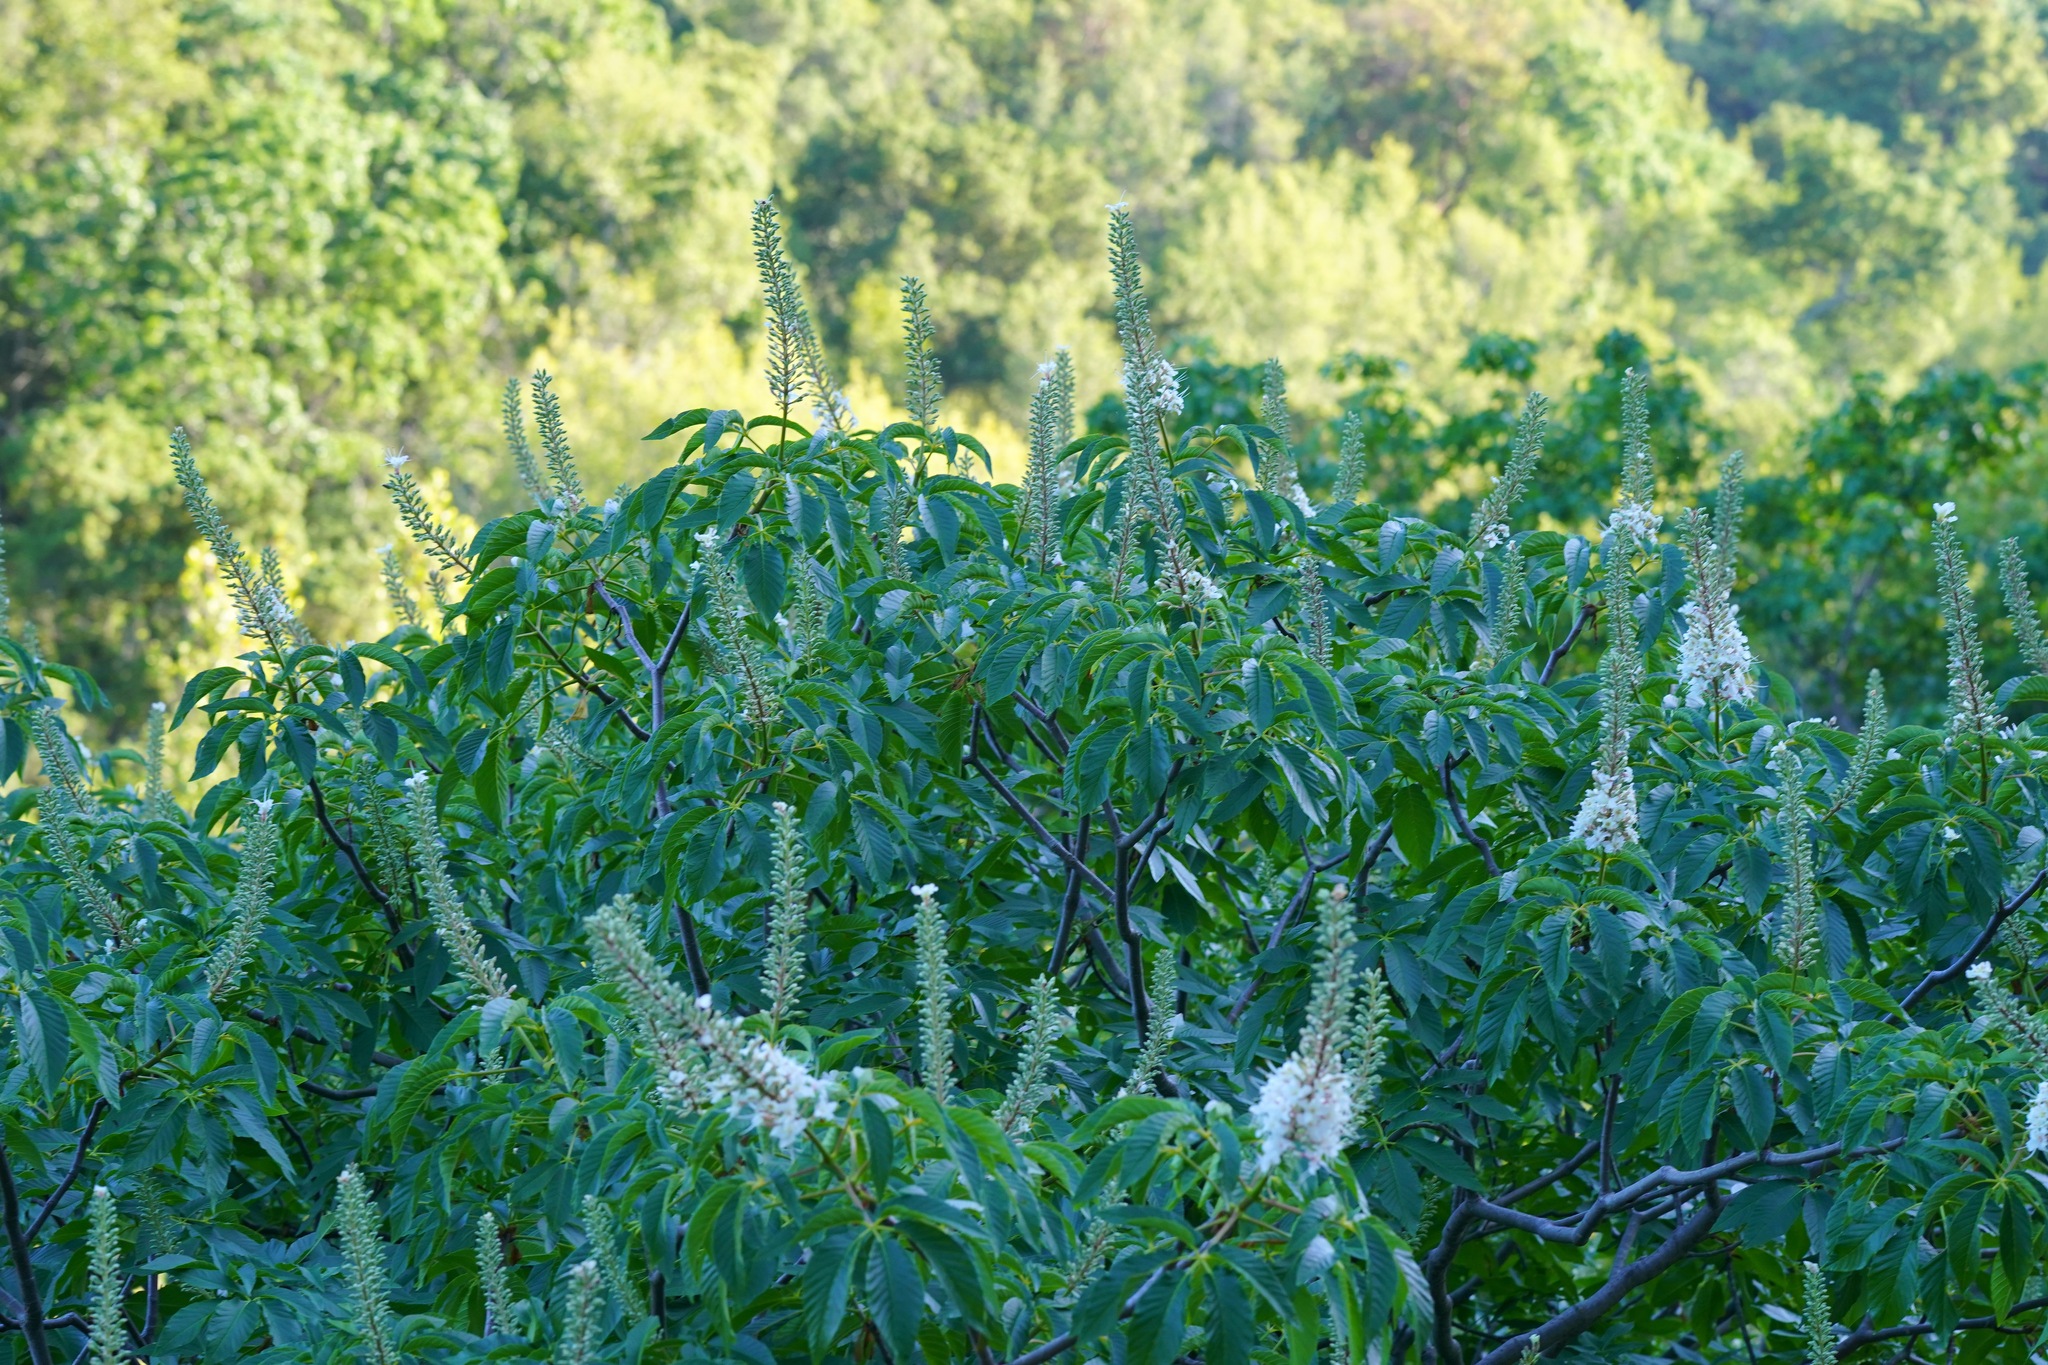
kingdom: Plantae
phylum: Tracheophyta
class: Magnoliopsida
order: Sapindales
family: Sapindaceae
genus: Aesculus
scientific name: Aesculus californica
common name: California buckeye
